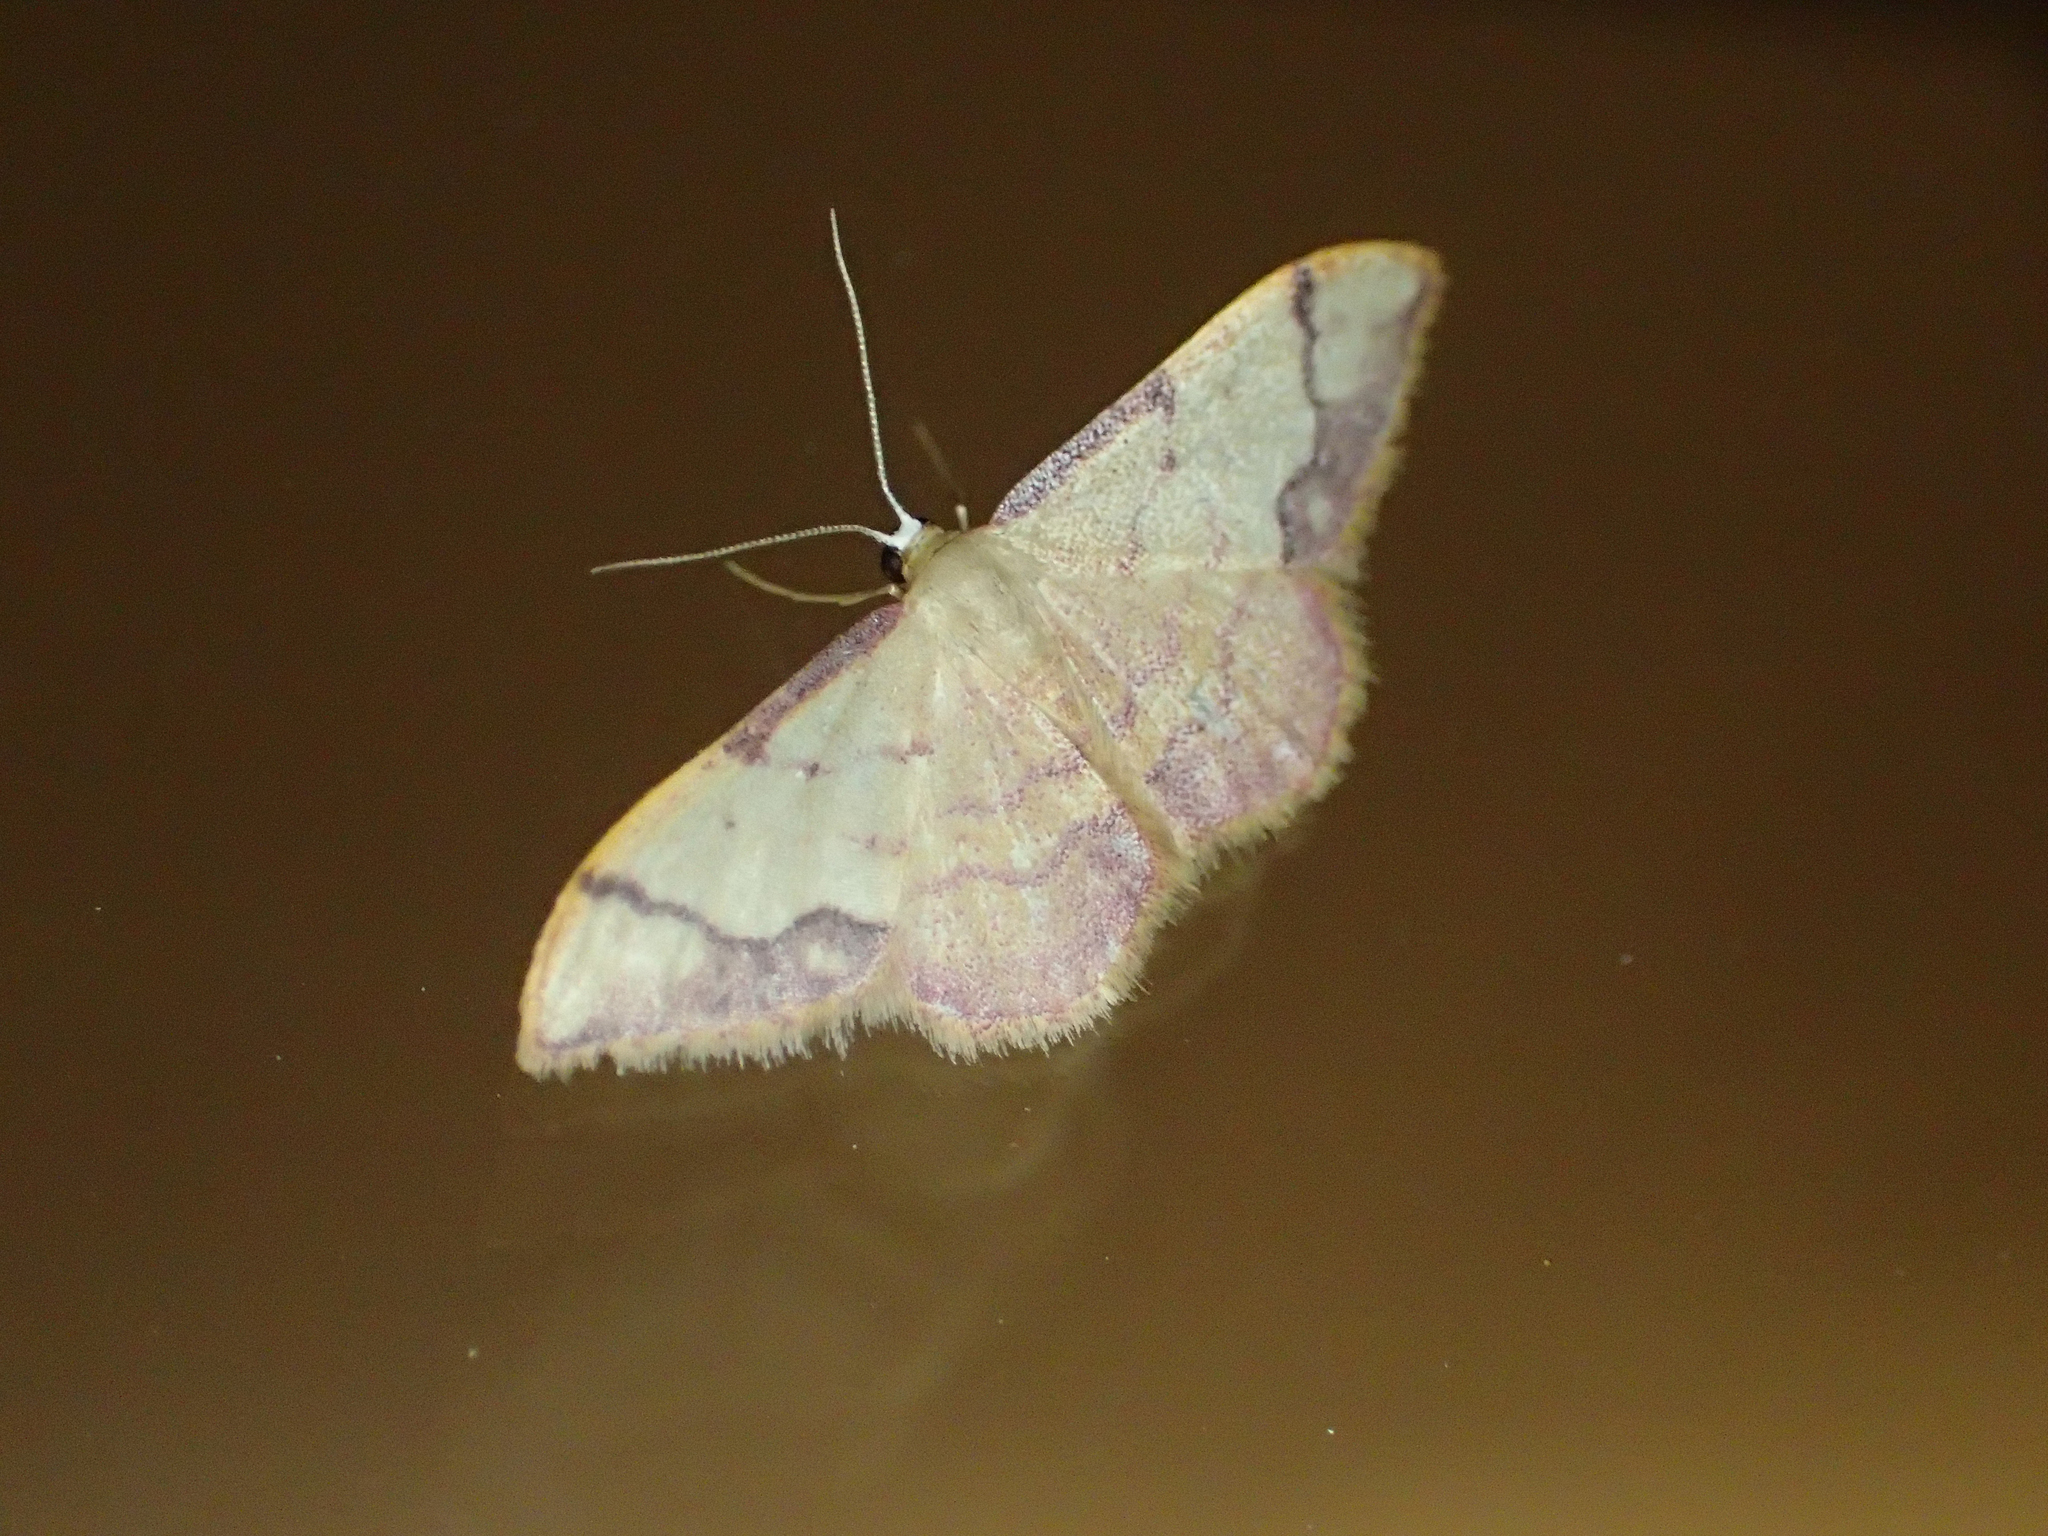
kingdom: Animalia
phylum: Arthropoda
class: Insecta
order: Lepidoptera
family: Geometridae
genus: Idaea
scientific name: Idaea ostrinaria
